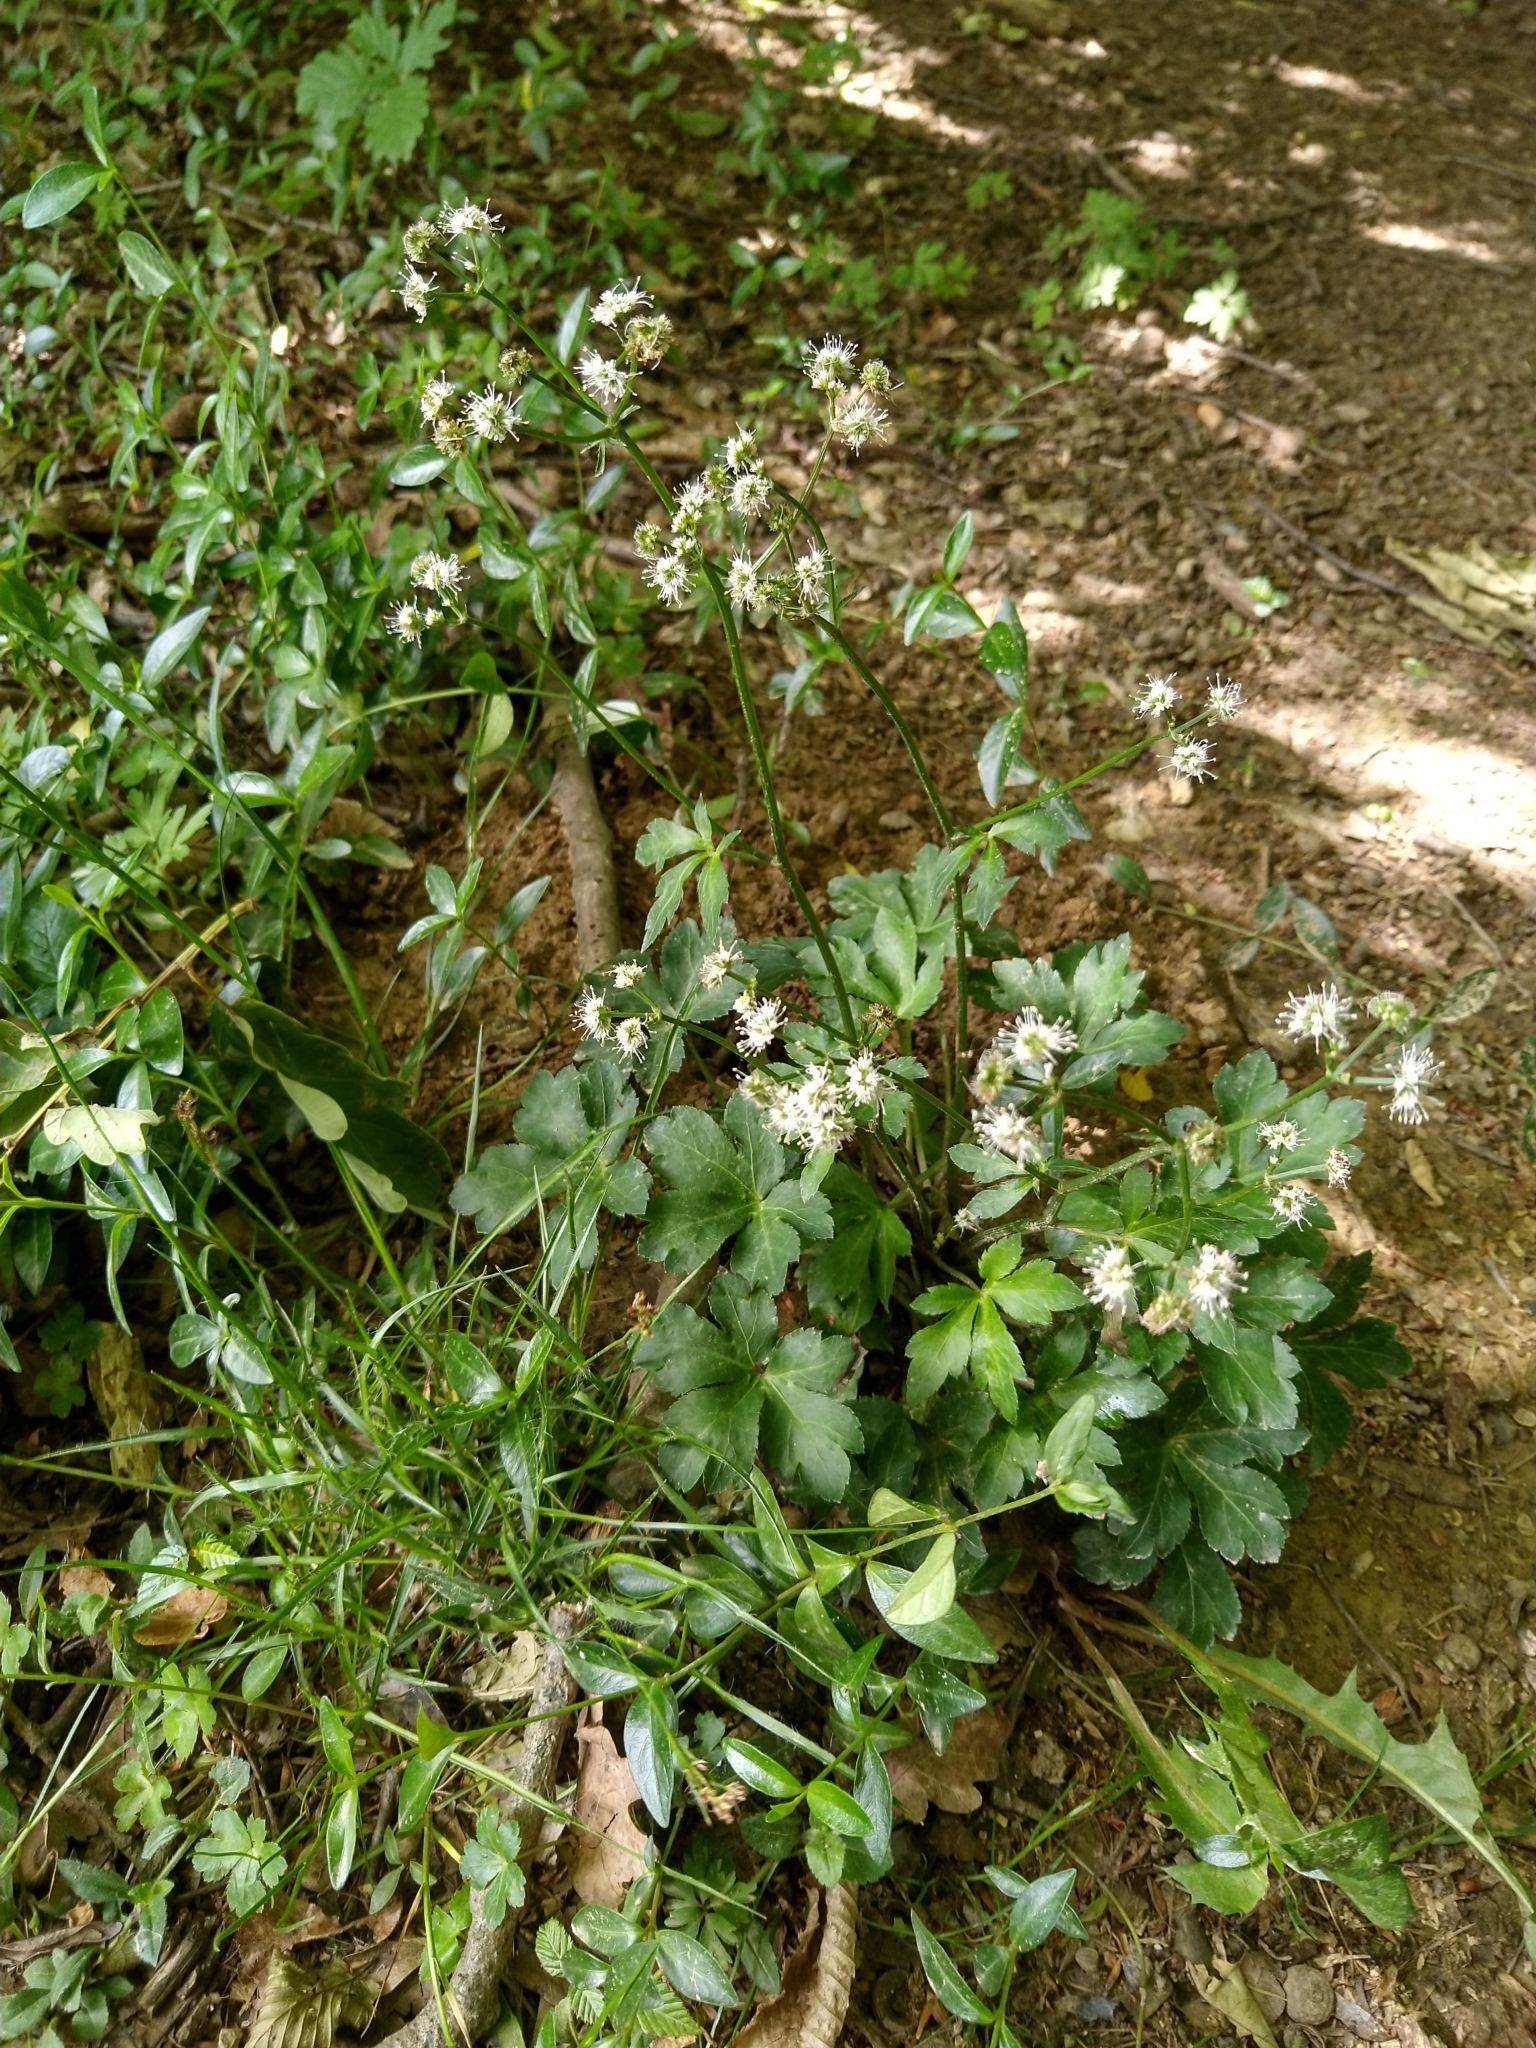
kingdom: Plantae
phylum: Tracheophyta
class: Magnoliopsida
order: Apiales
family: Apiaceae
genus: Sanicula
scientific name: Sanicula europaea
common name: Sanicle
